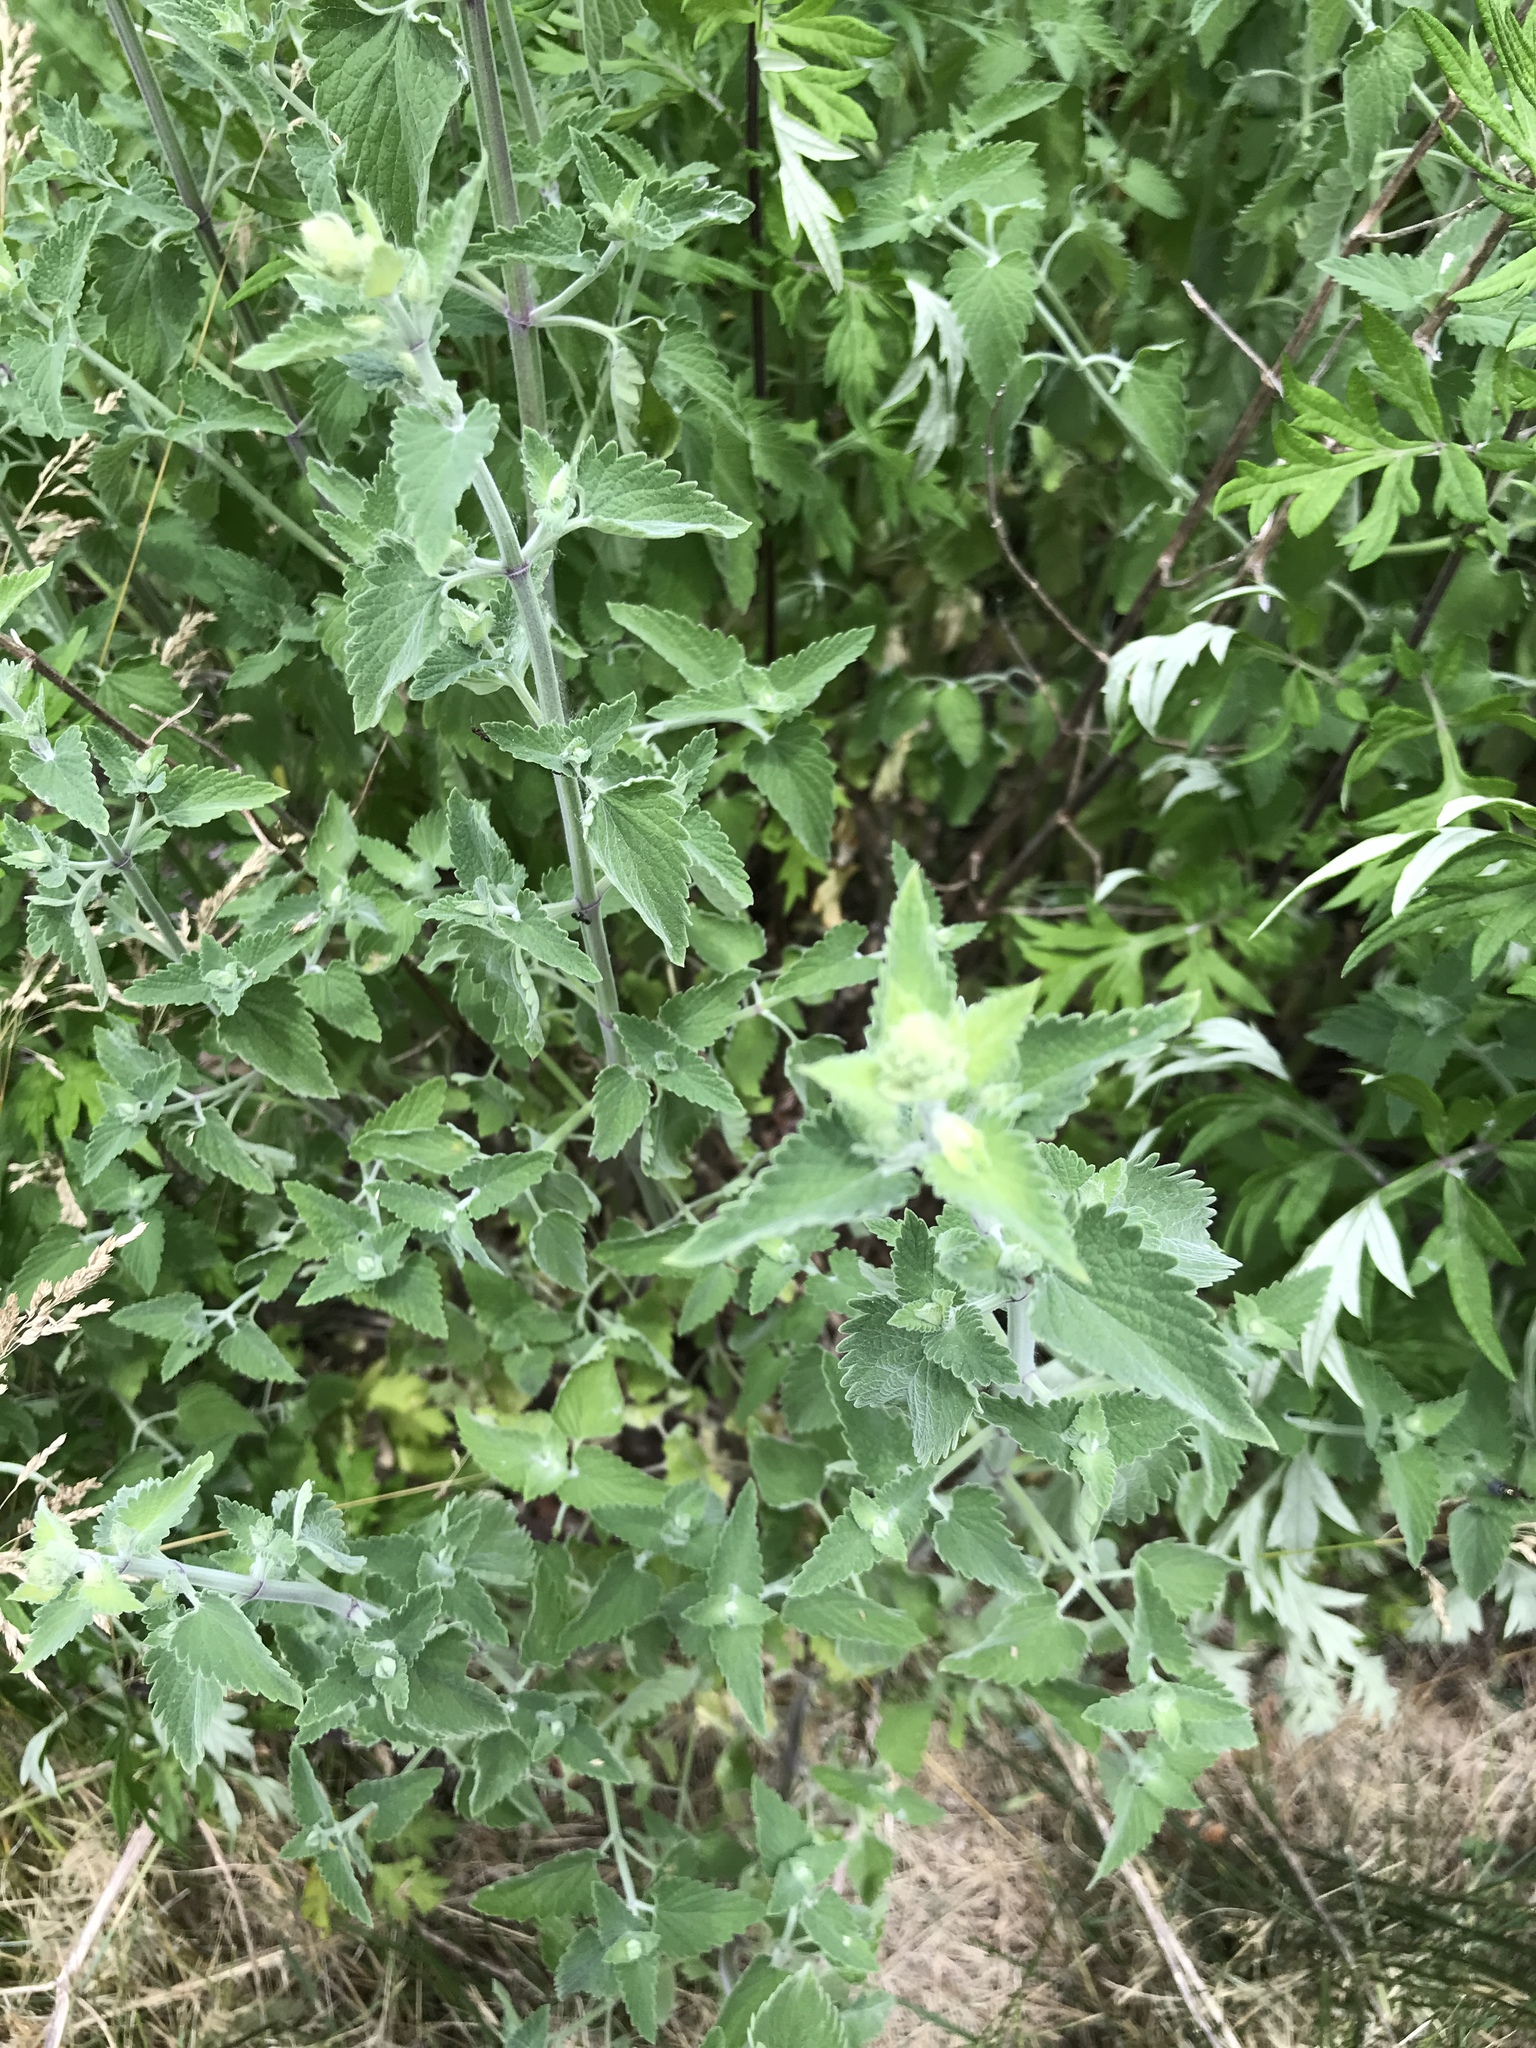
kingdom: Plantae
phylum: Tracheophyta
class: Magnoliopsida
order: Lamiales
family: Lamiaceae
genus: Nepeta
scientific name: Nepeta cataria
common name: Catnip
